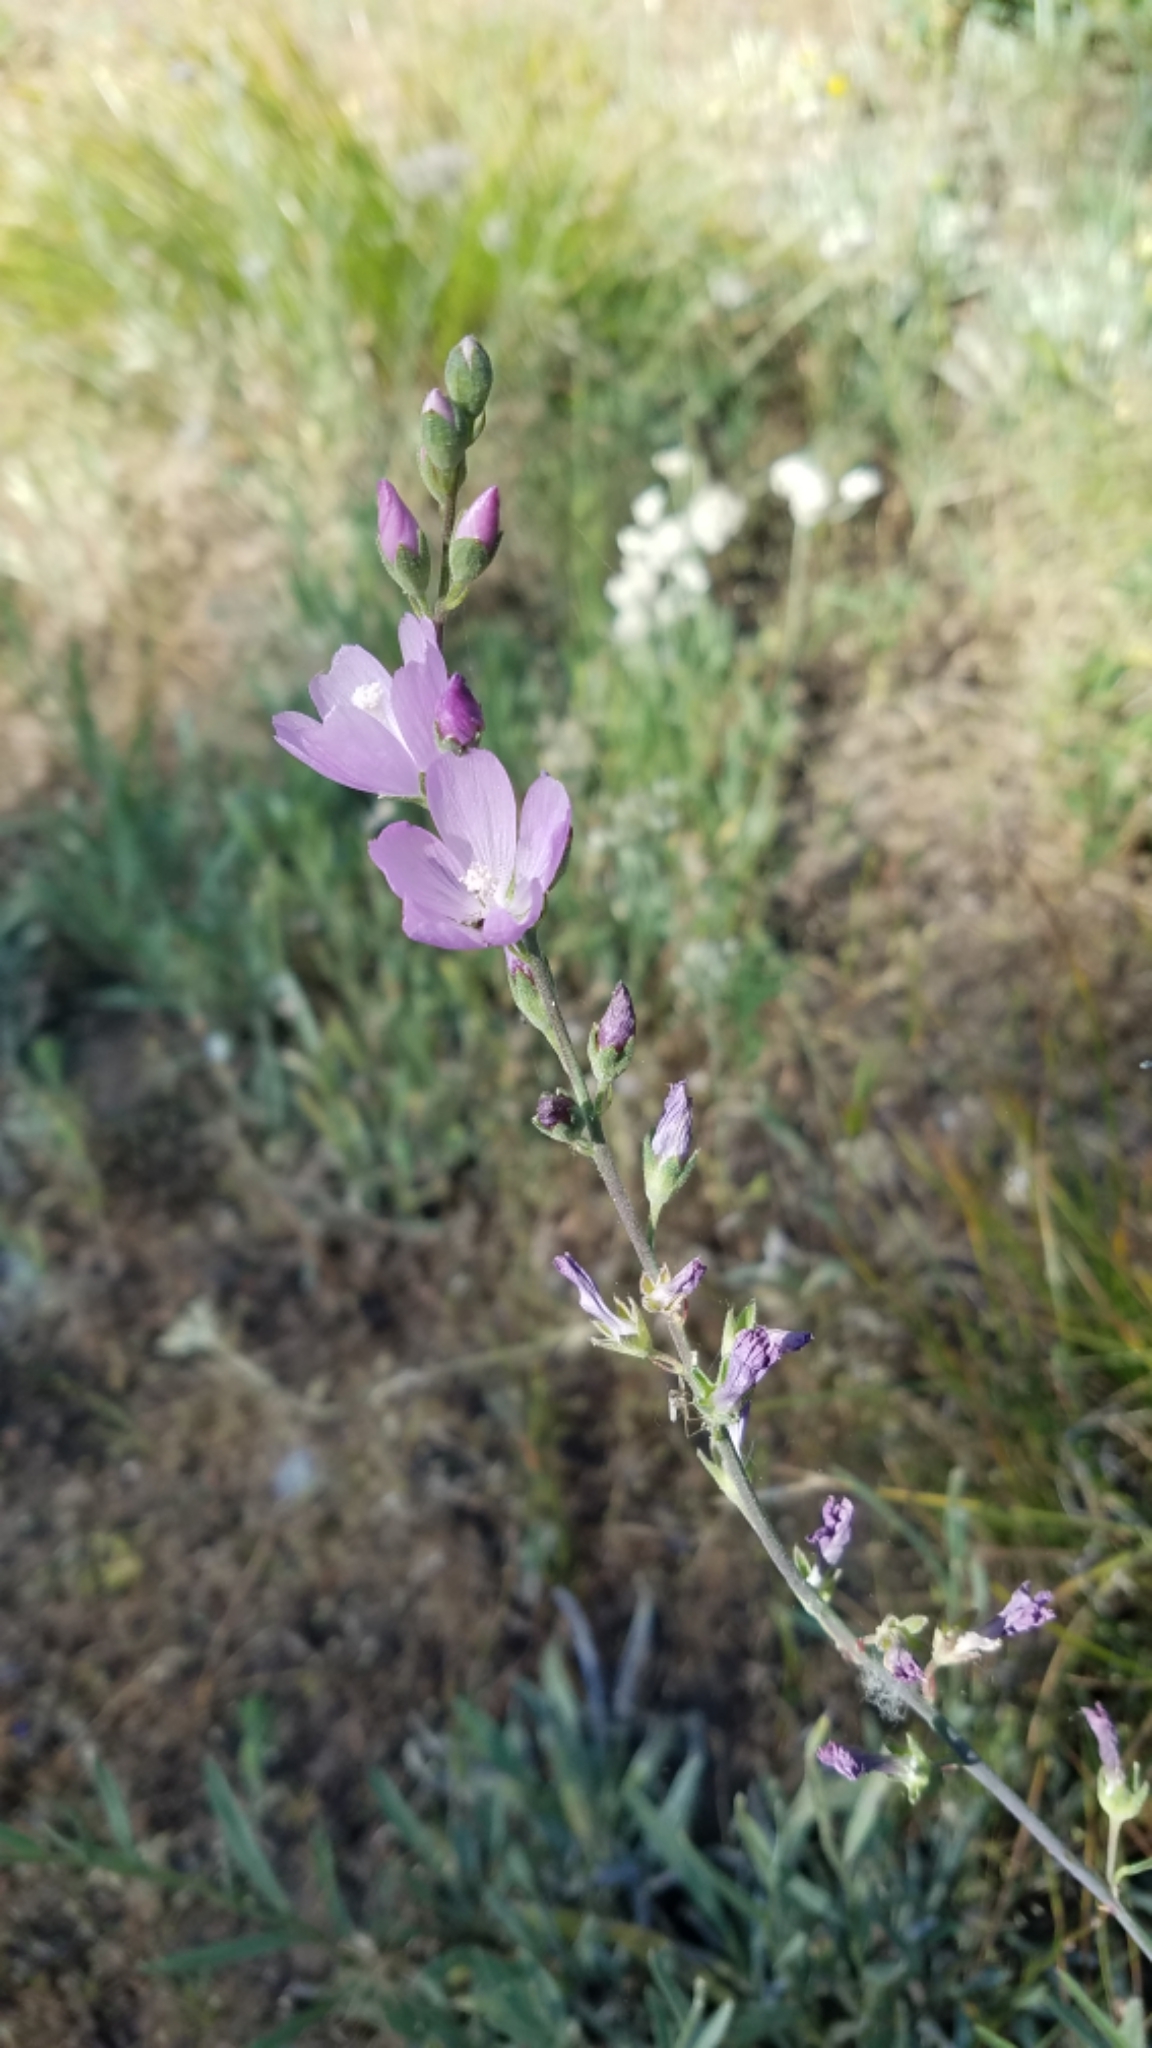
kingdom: Plantae
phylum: Tracheophyta
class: Magnoliopsida
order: Malvales
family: Malvaceae
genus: Sidalcea
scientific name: Sidalcea oregana
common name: Oregon checker-mallow
